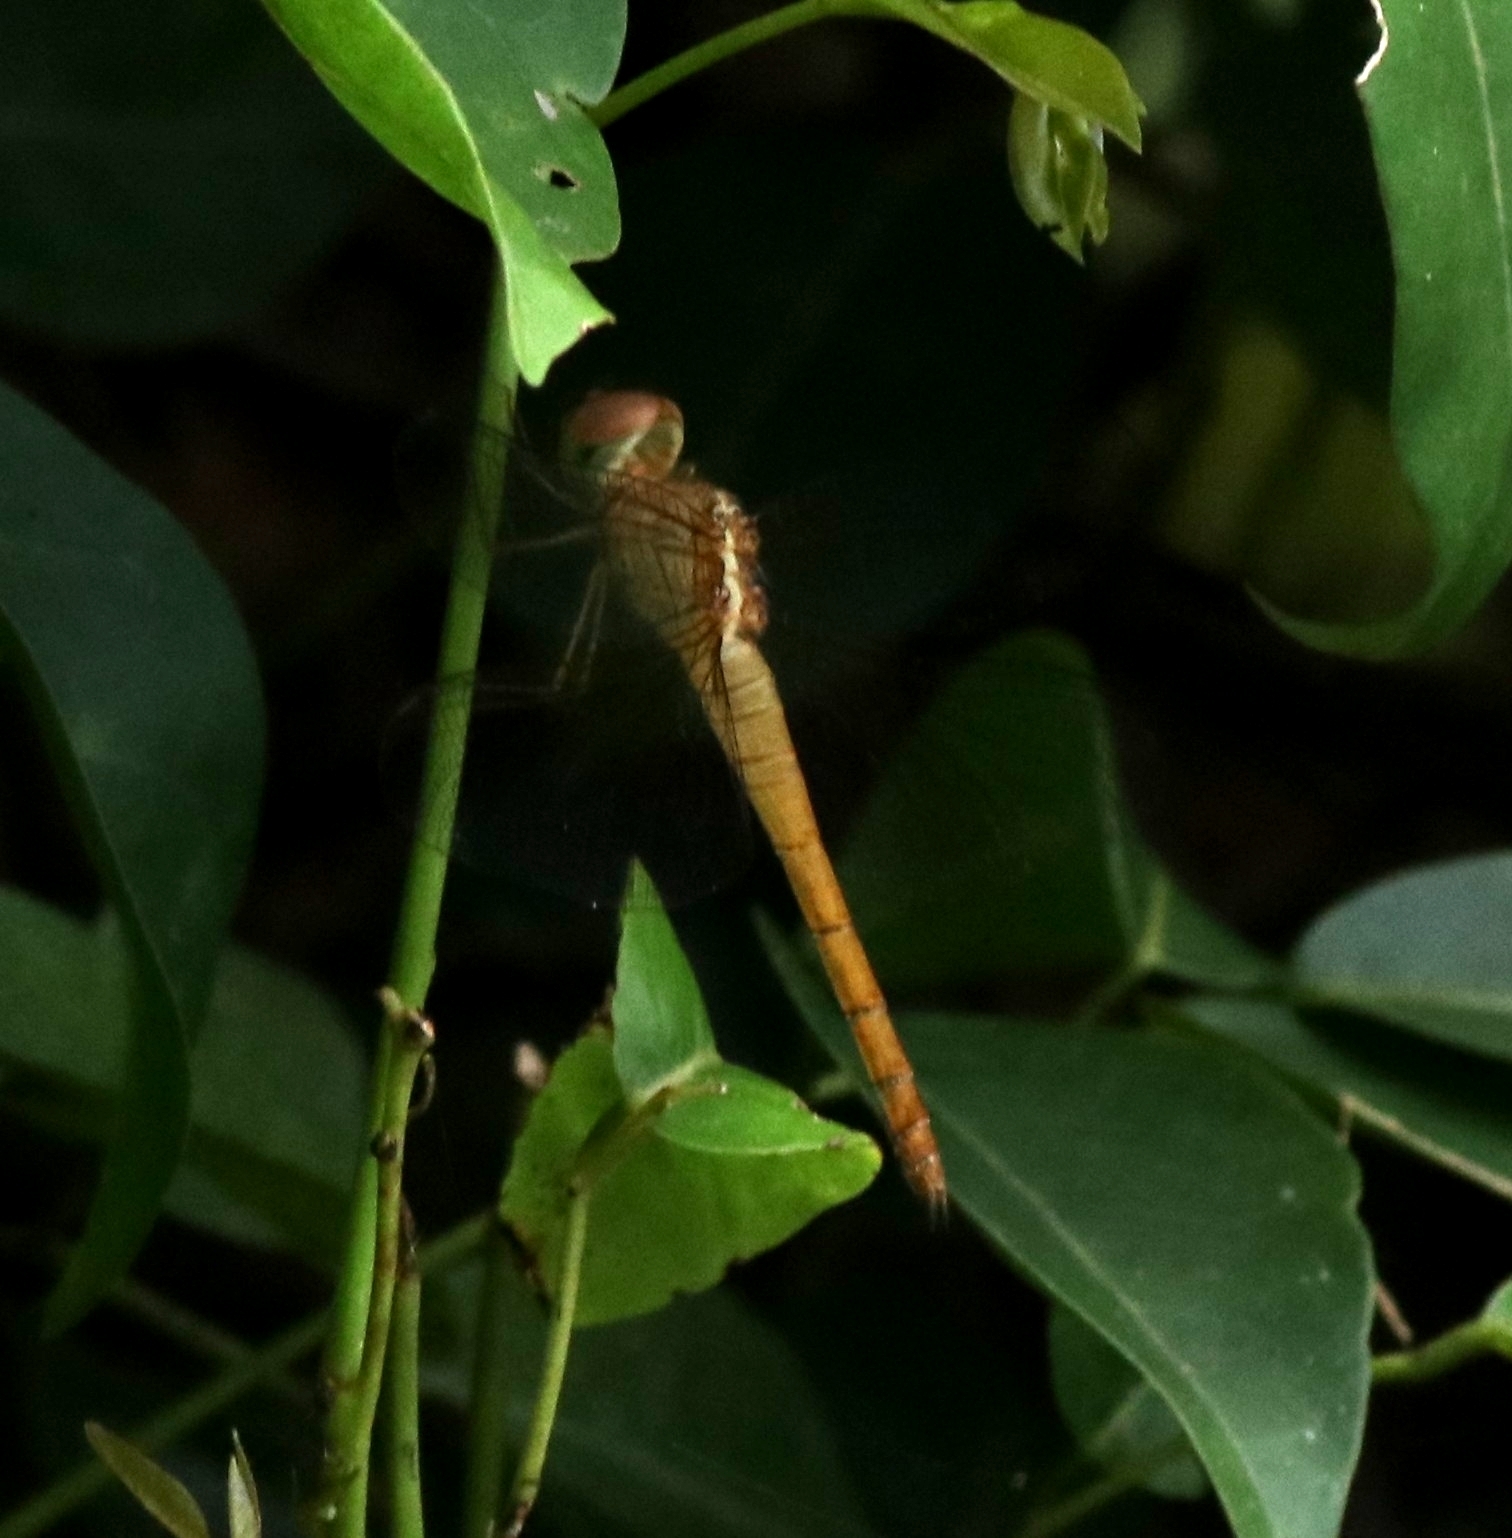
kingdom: Animalia
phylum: Arthropoda
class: Insecta
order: Odonata
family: Libellulidae
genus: Tholymis
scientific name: Tholymis tillarga
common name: Coral-tailed cloud wing
